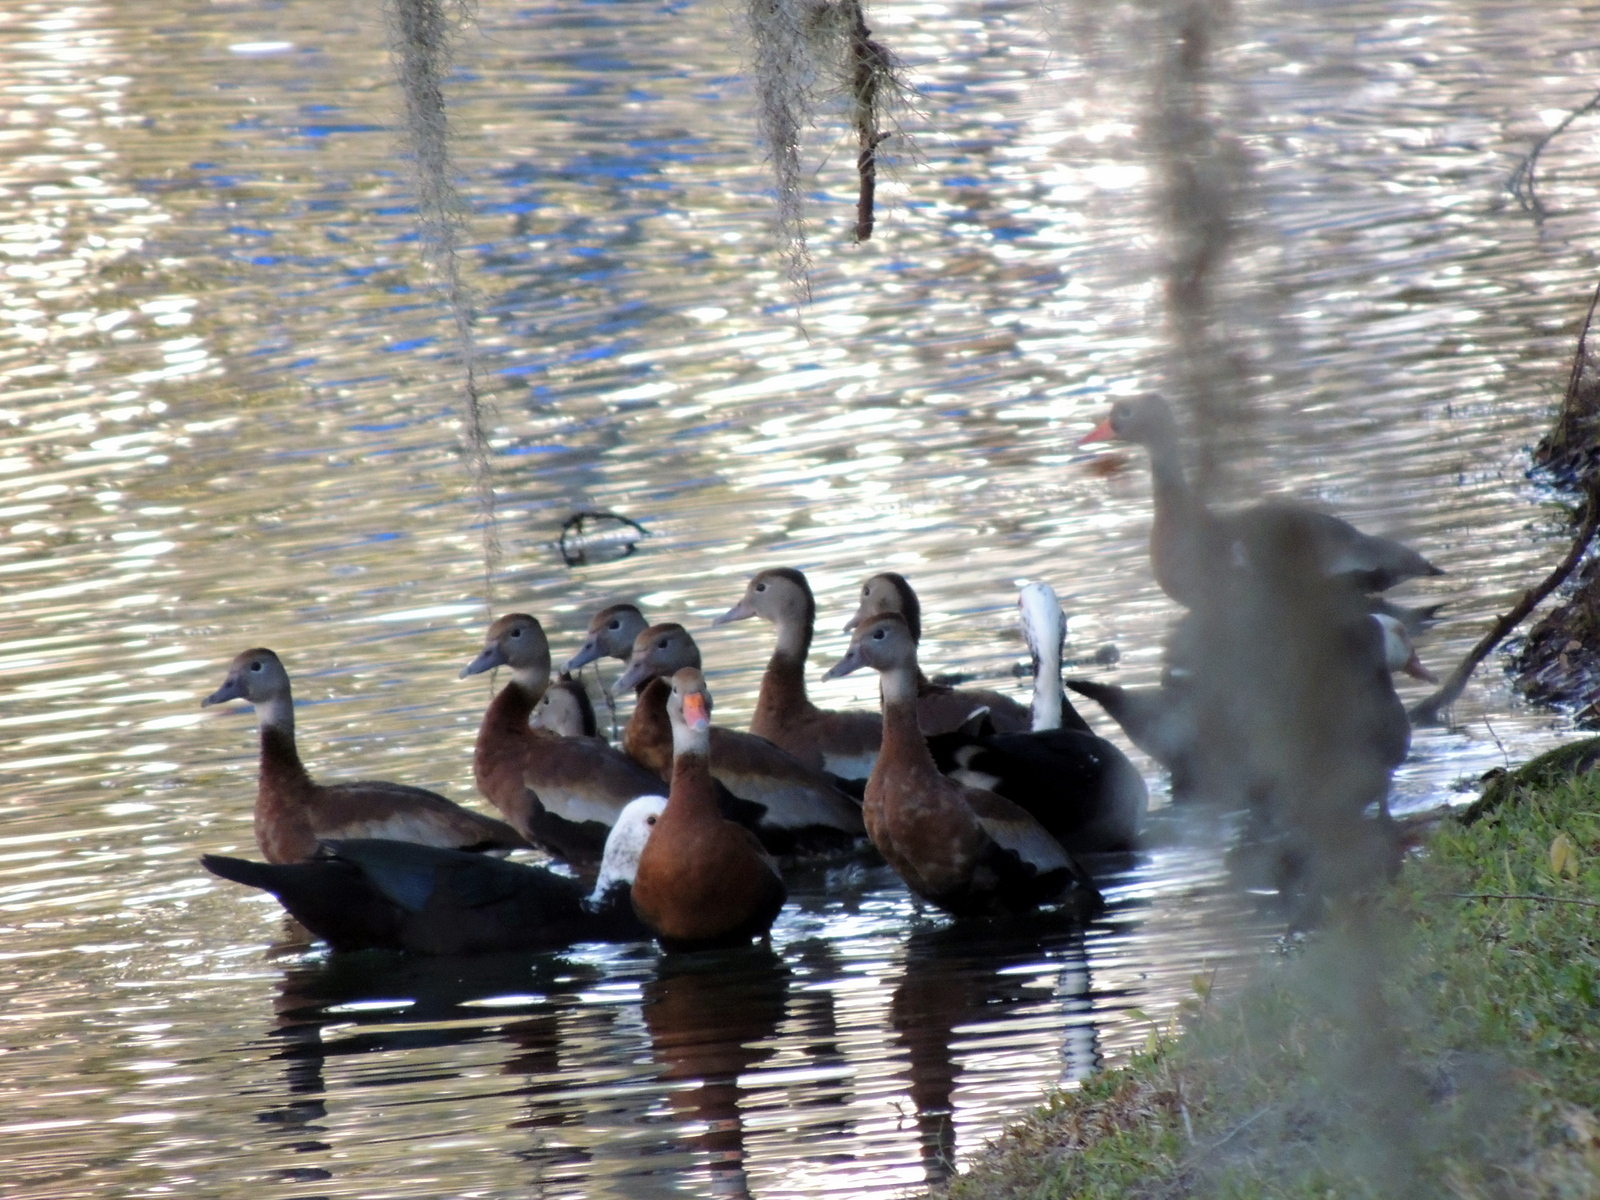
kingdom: Animalia
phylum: Chordata
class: Aves
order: Anseriformes
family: Anatidae
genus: Dendrocygna
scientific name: Dendrocygna autumnalis
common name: Black-bellied whistling duck
